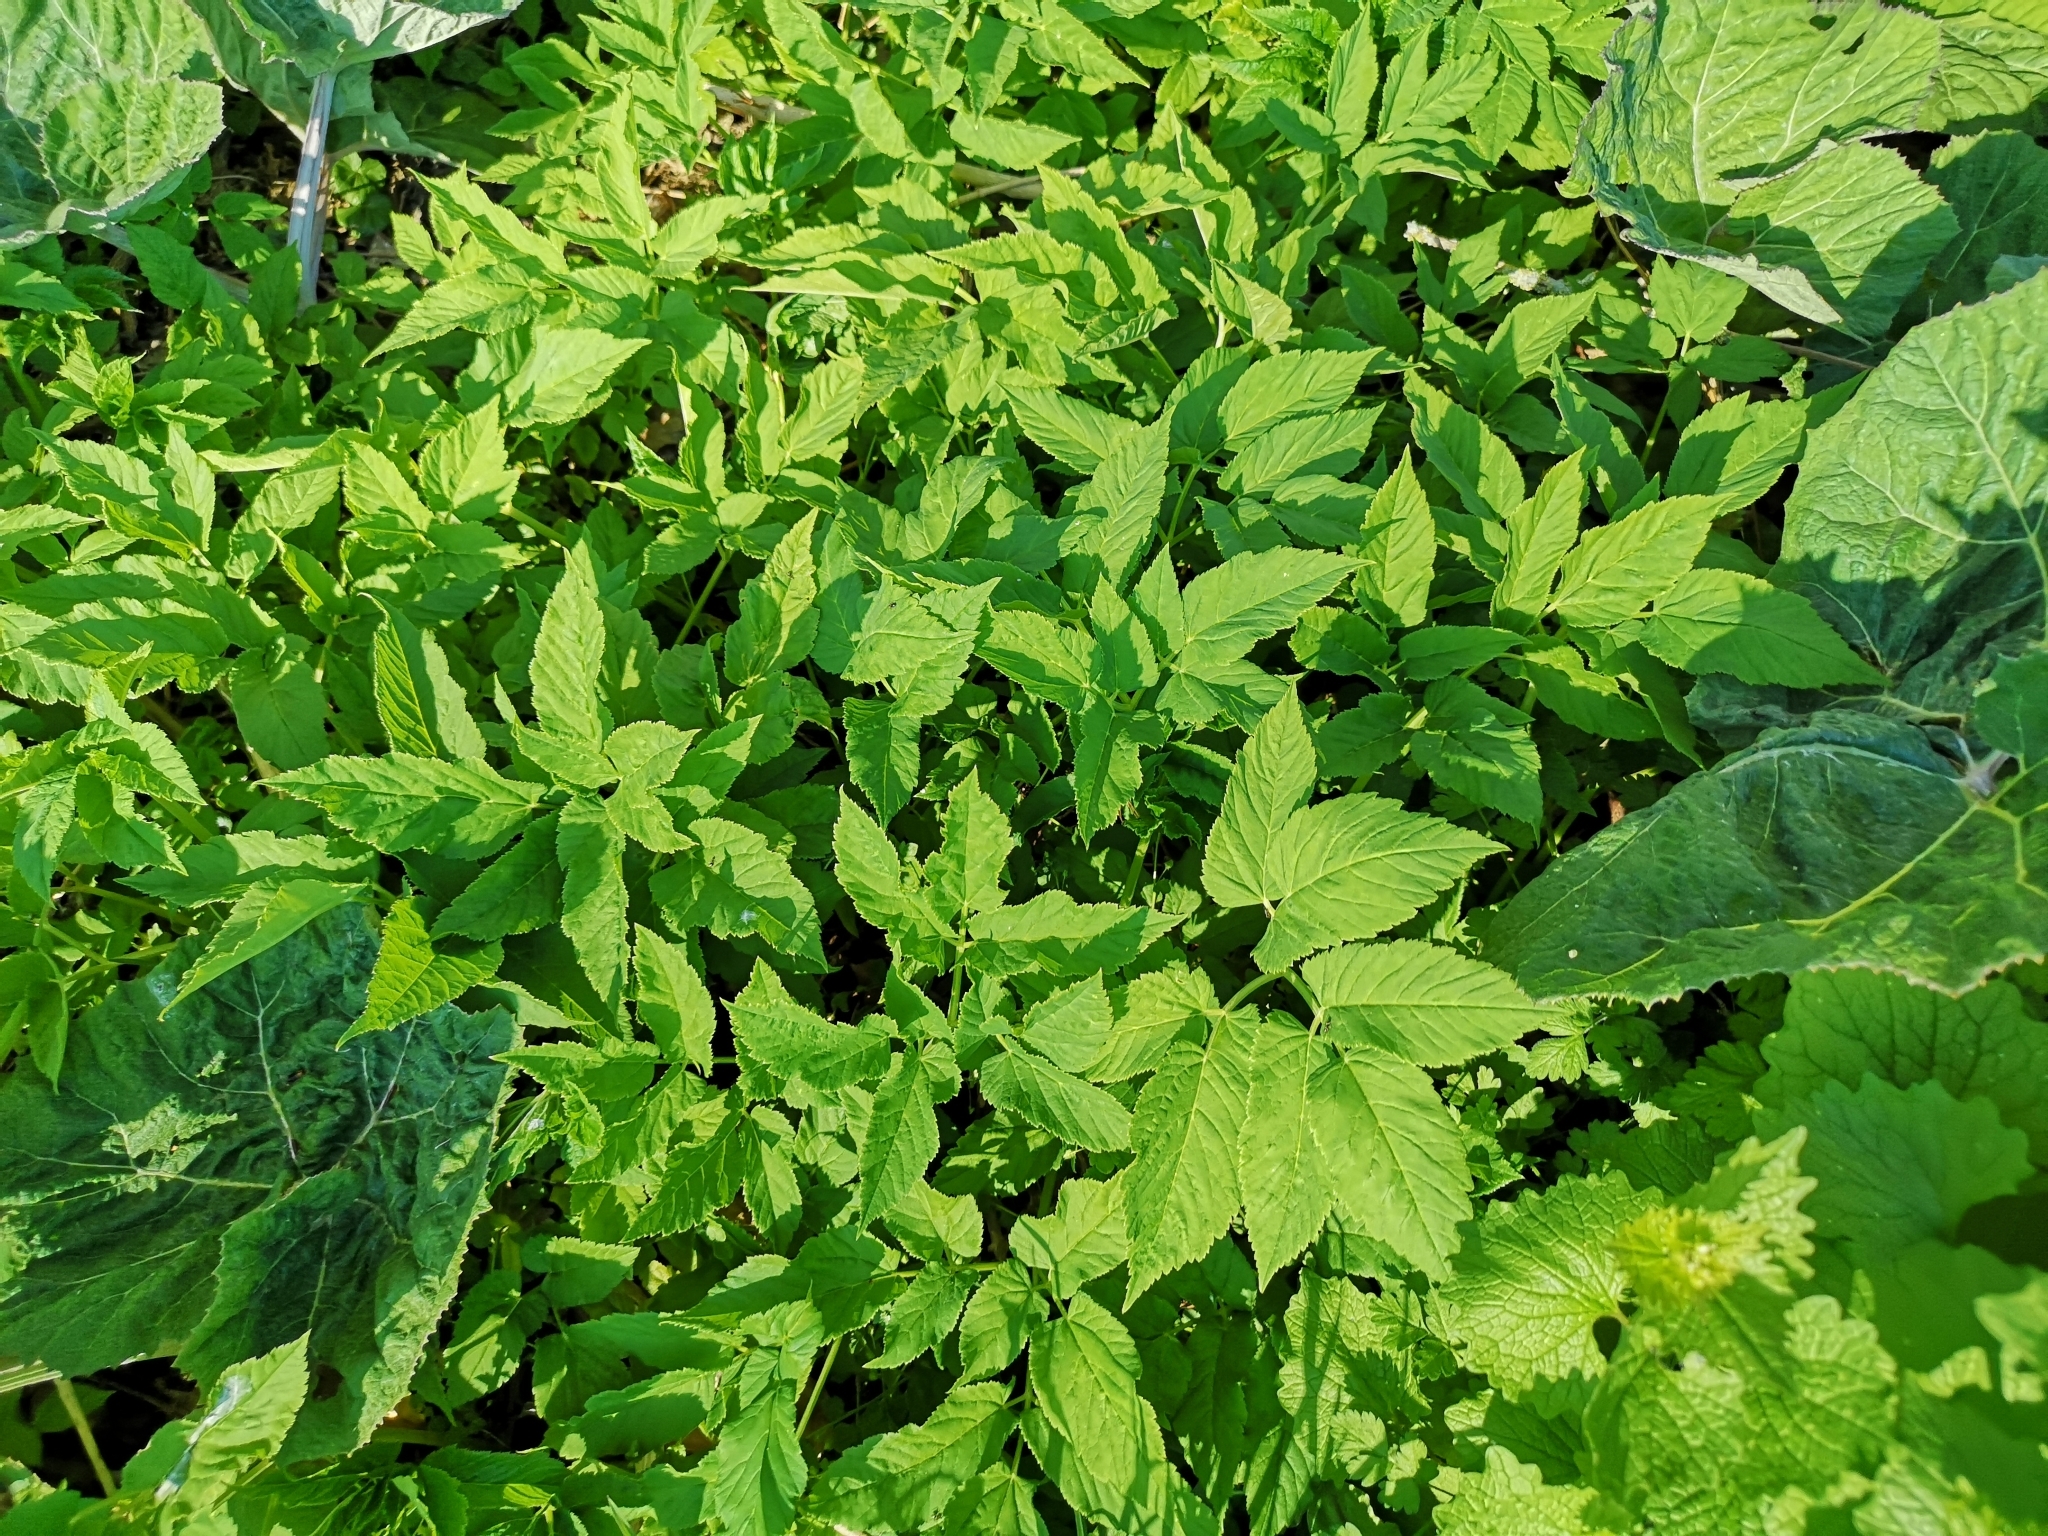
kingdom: Plantae
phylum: Tracheophyta
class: Magnoliopsida
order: Apiales
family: Apiaceae
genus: Aegopodium
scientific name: Aegopodium podagraria
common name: Ground-elder
